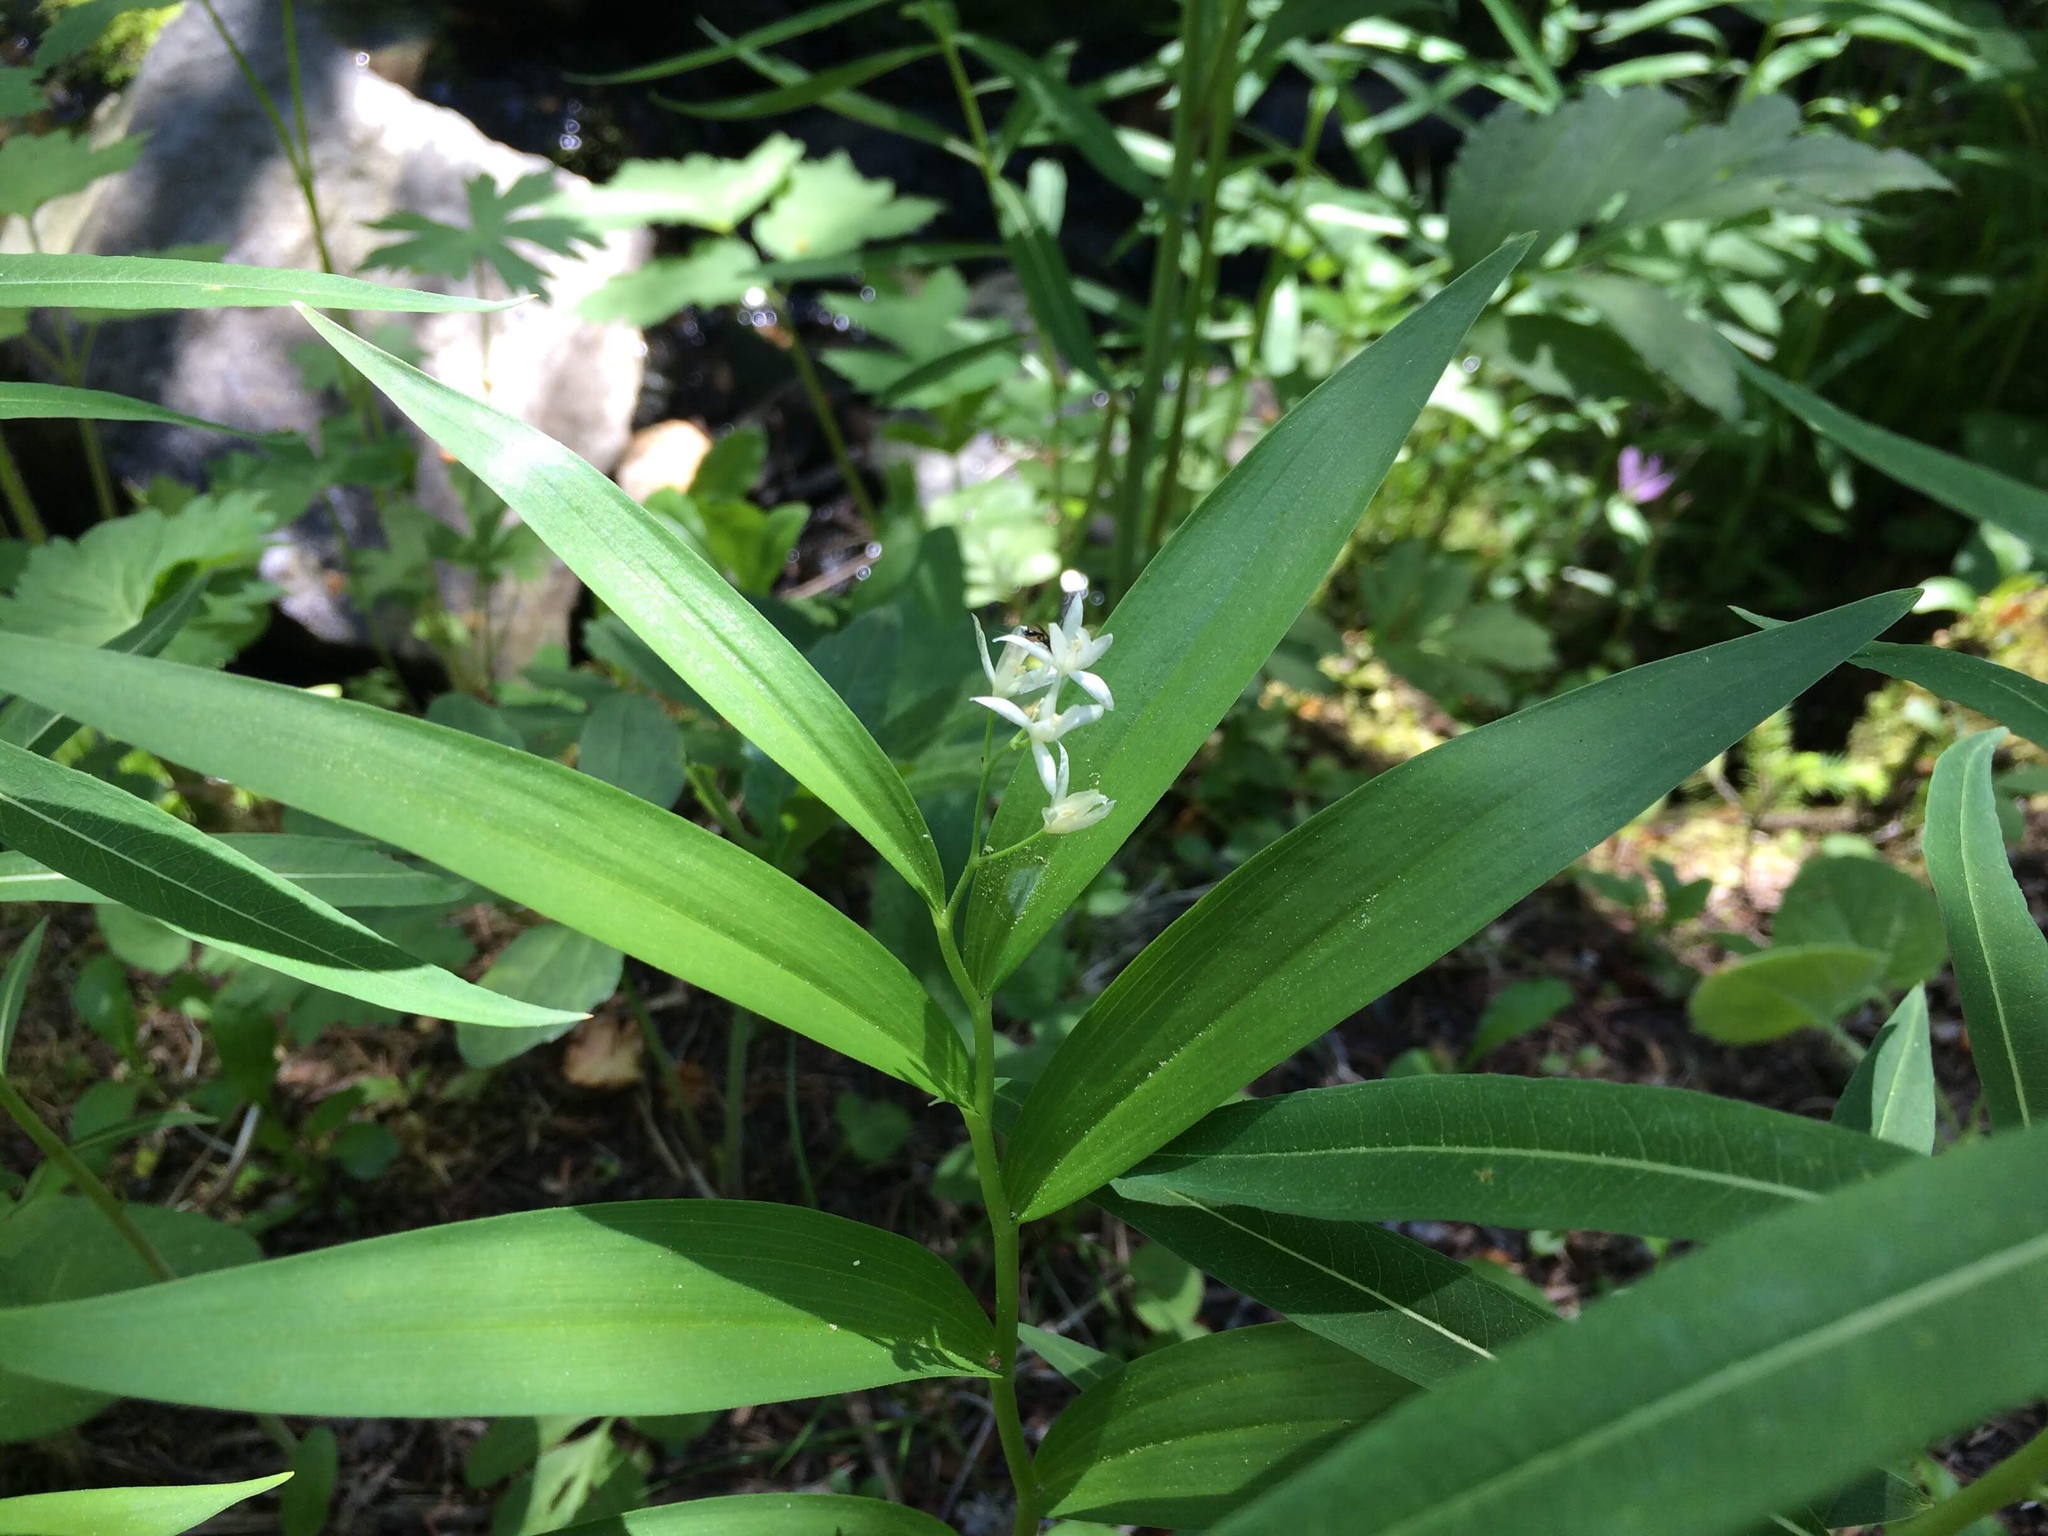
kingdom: Plantae
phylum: Tracheophyta
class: Liliopsida
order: Asparagales
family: Asparagaceae
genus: Maianthemum
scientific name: Maianthemum stellatum
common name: Little false solomon's seal
